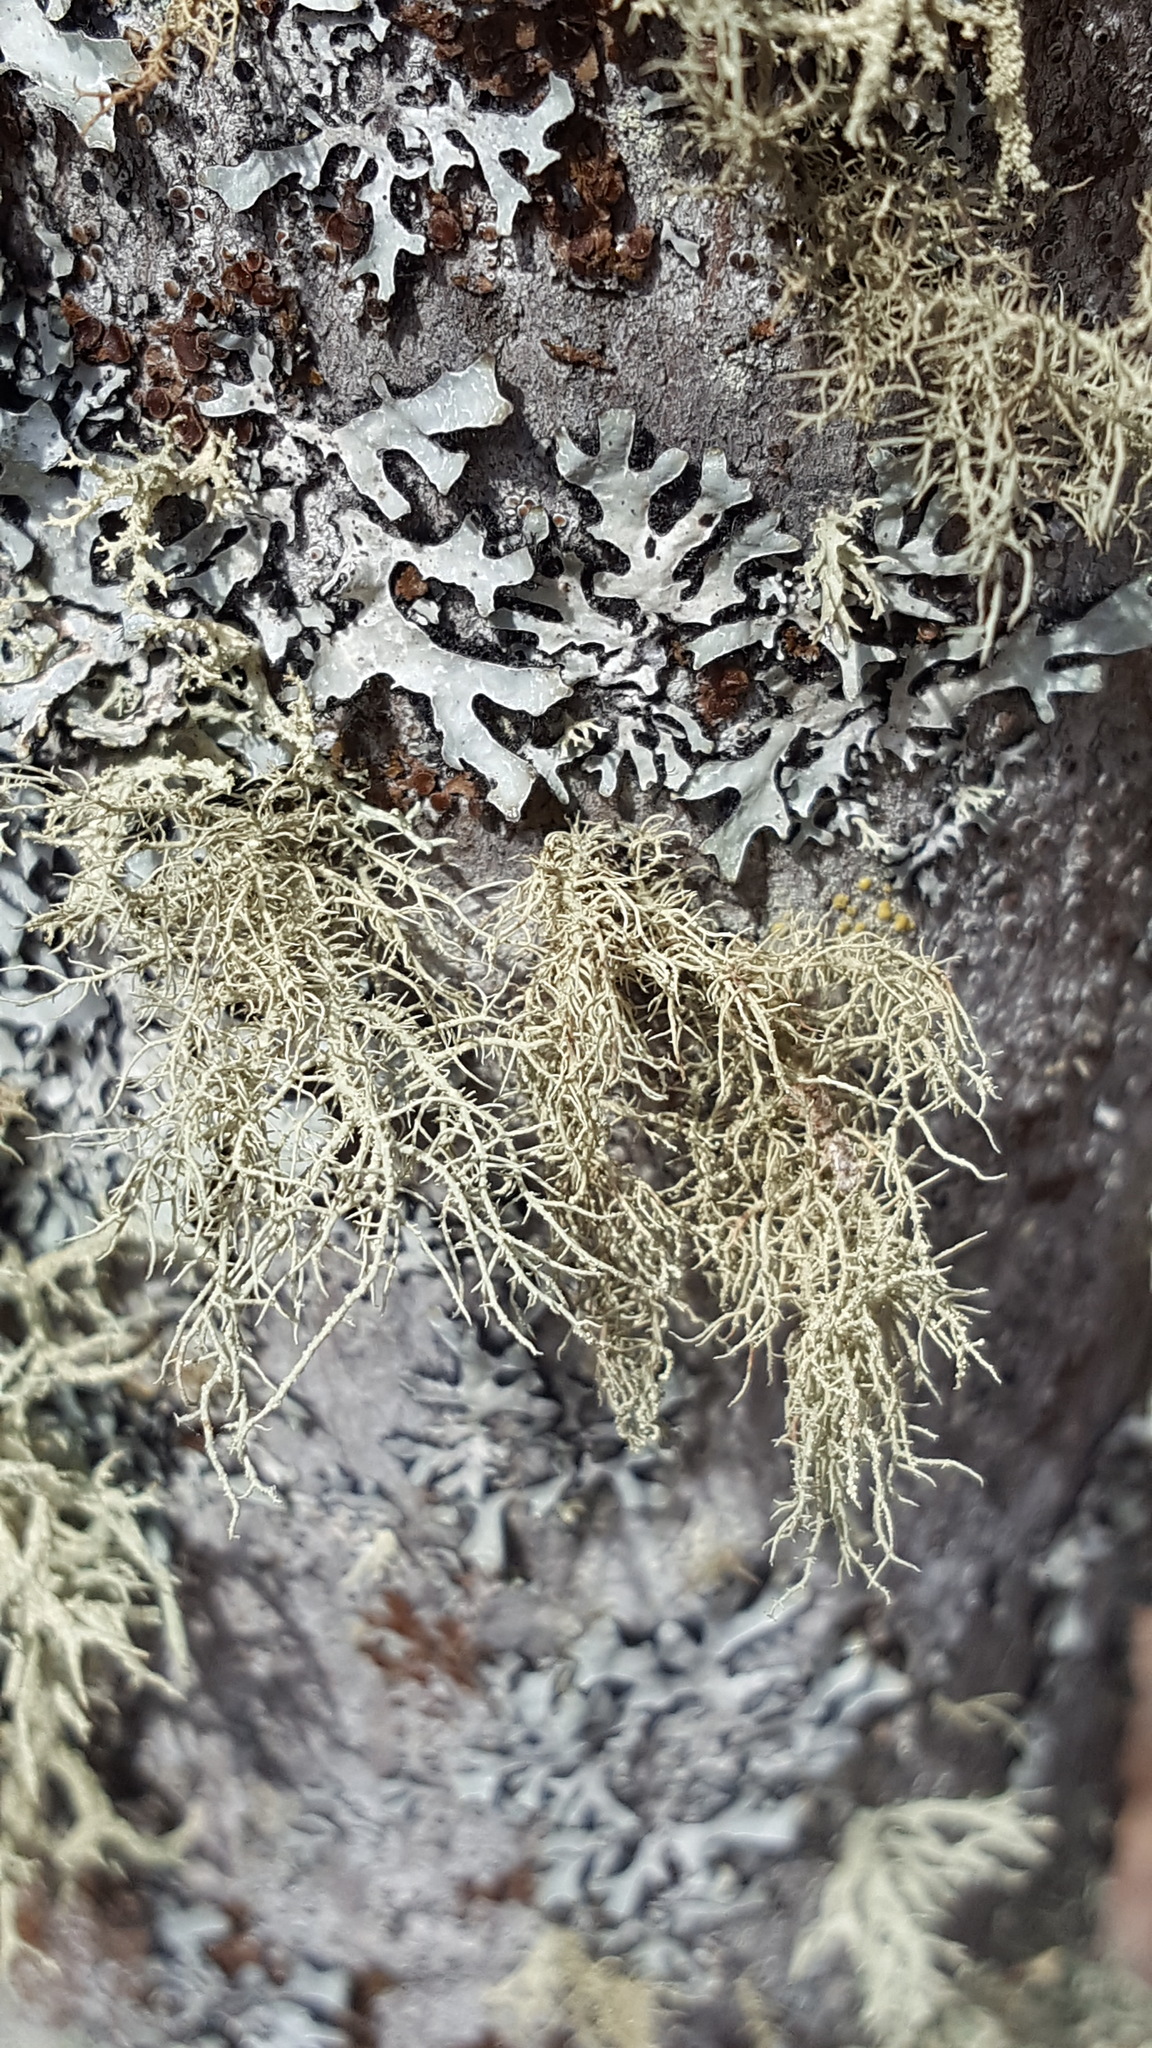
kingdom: Fungi
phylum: Ascomycota
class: Lecanoromycetes
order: Lecanorales
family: Parmeliaceae
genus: Usnea
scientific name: Usnea hirta
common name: Bristly beard lichen
